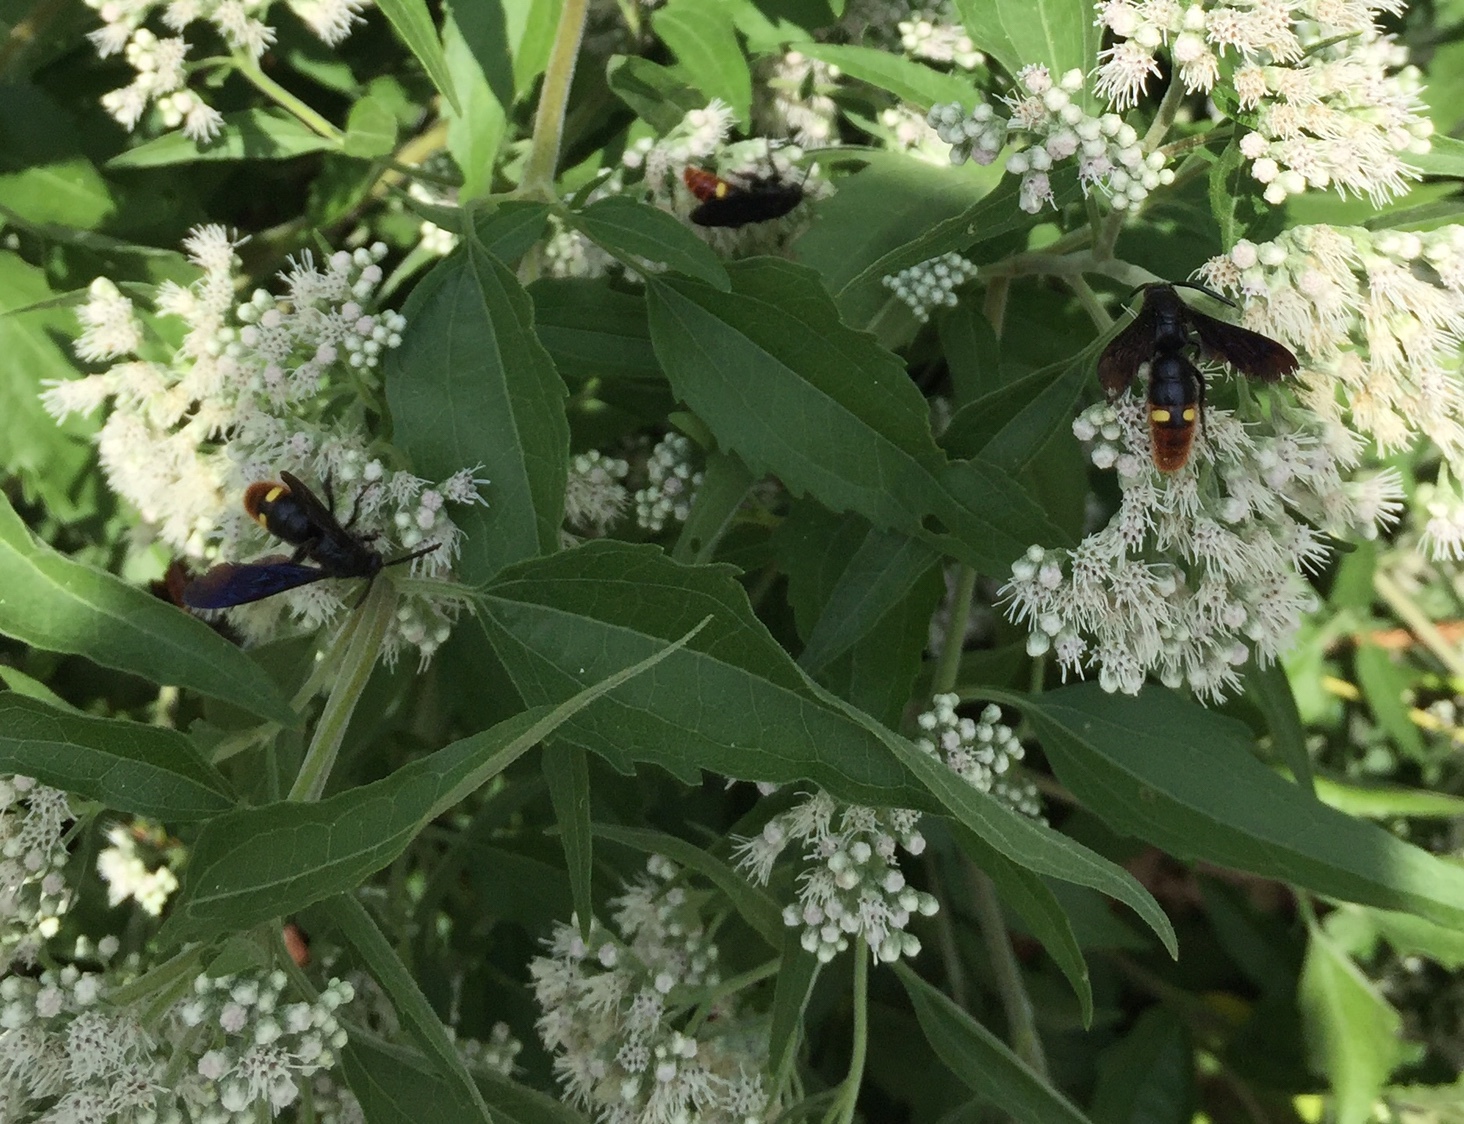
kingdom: Animalia
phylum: Arthropoda
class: Insecta
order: Hymenoptera
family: Scoliidae
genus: Scolia
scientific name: Scolia dubia
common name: Blue-winged scoliid wasp
